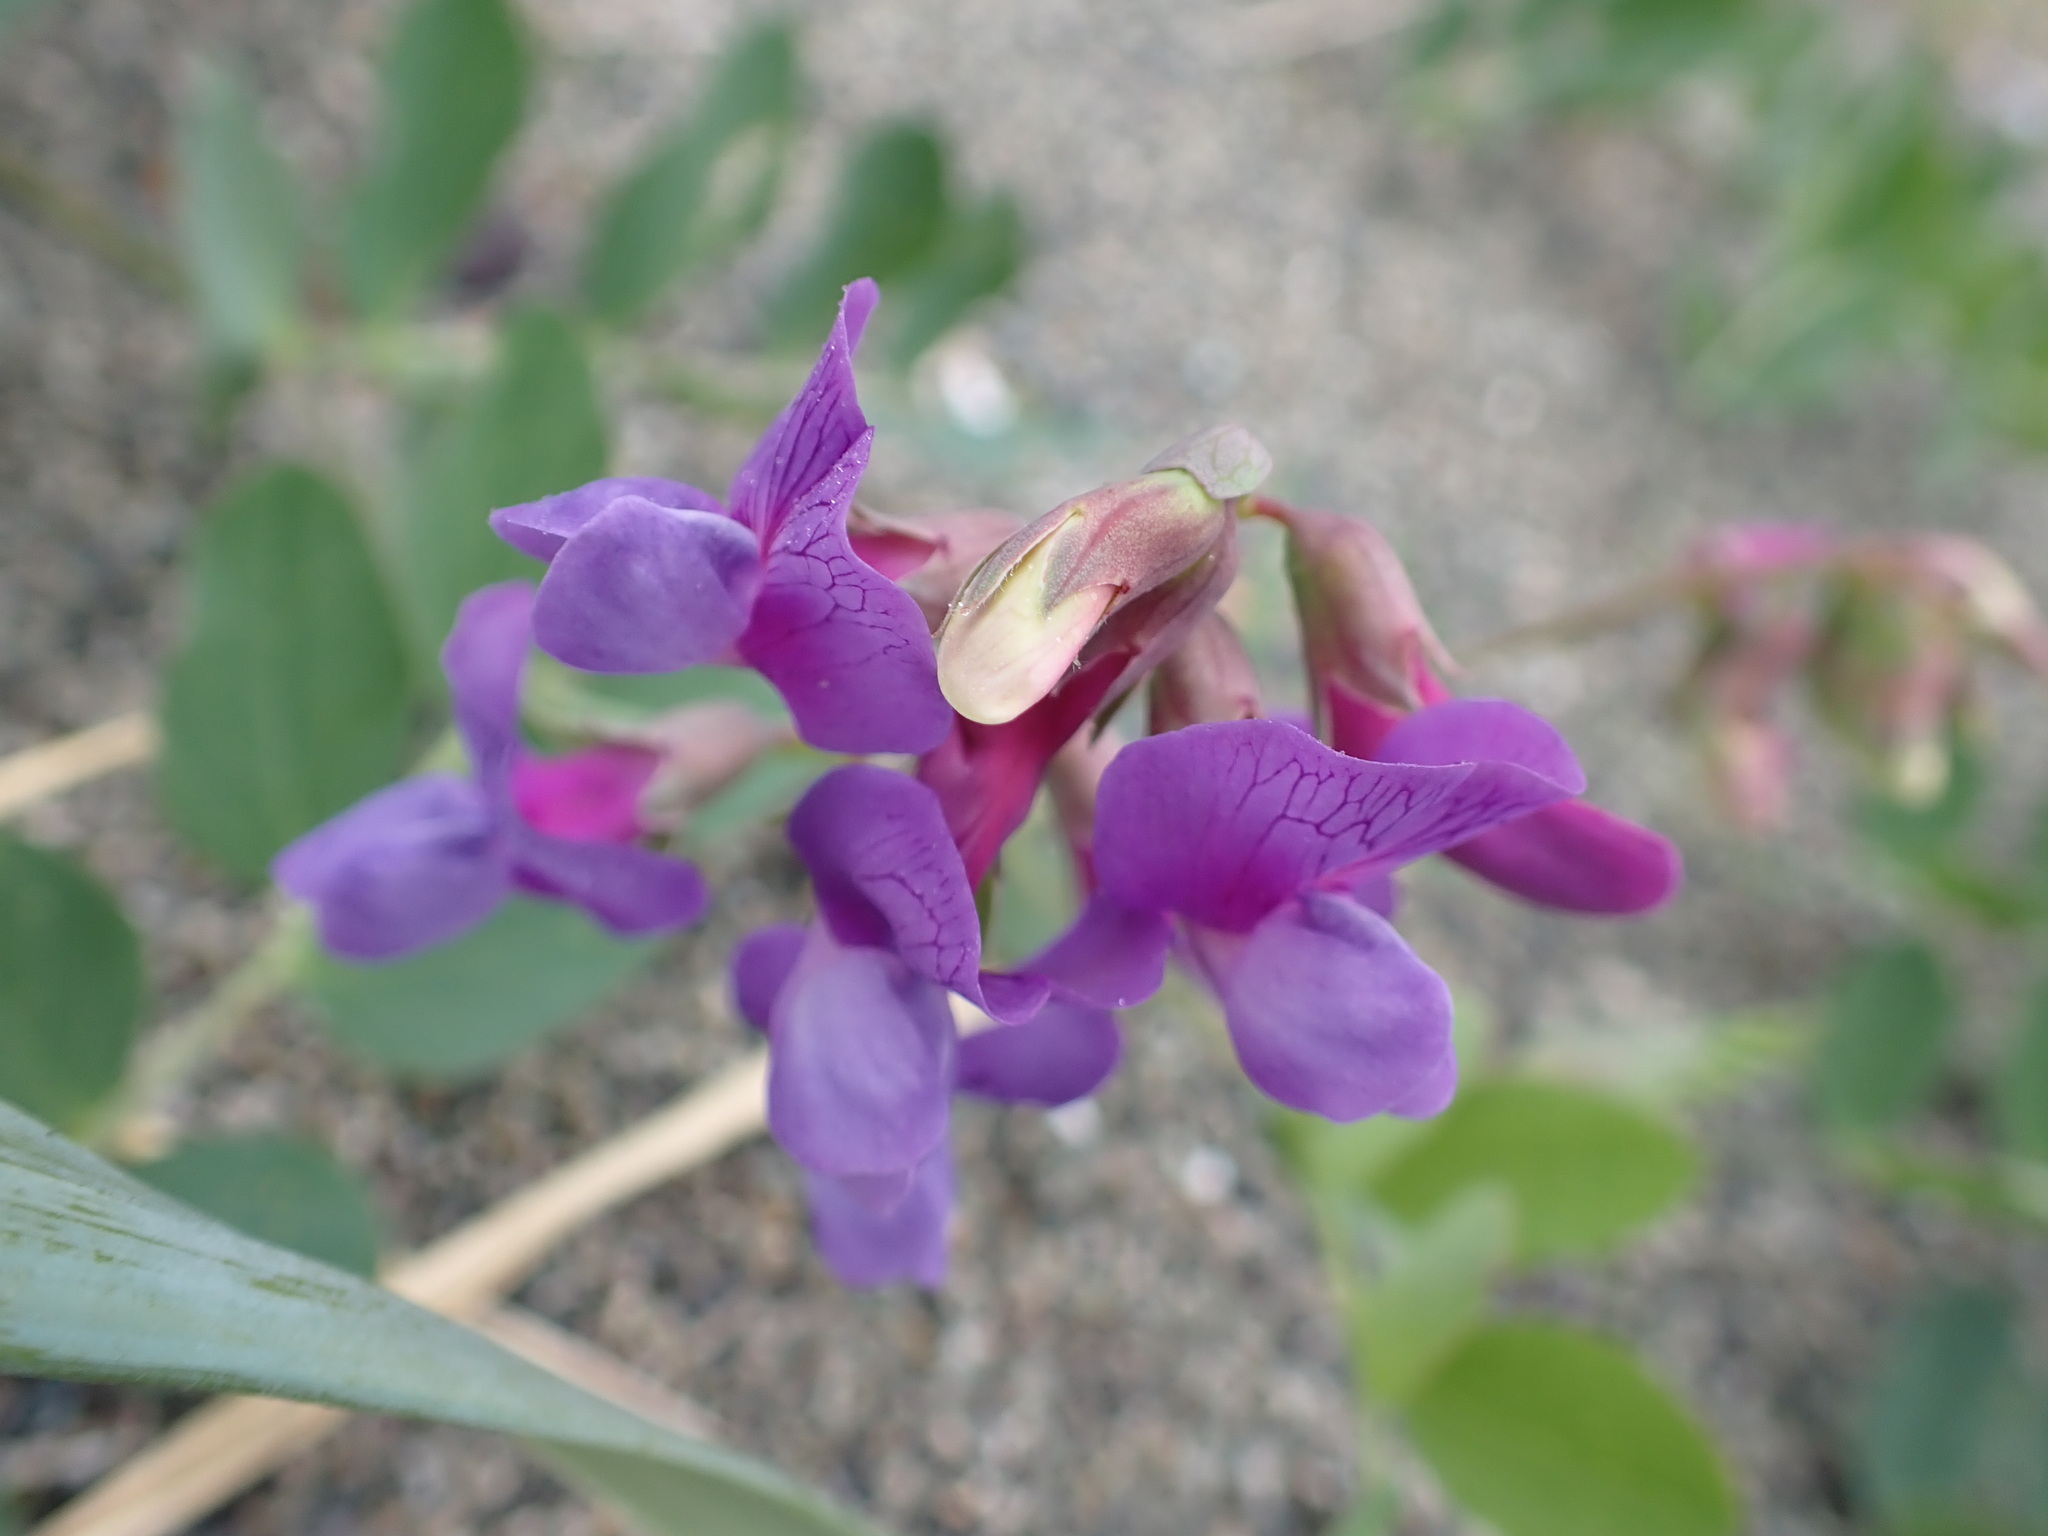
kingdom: Plantae
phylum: Tracheophyta
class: Magnoliopsida
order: Fabales
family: Fabaceae
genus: Lathyrus
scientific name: Lathyrus japonicus
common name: Sea pea
